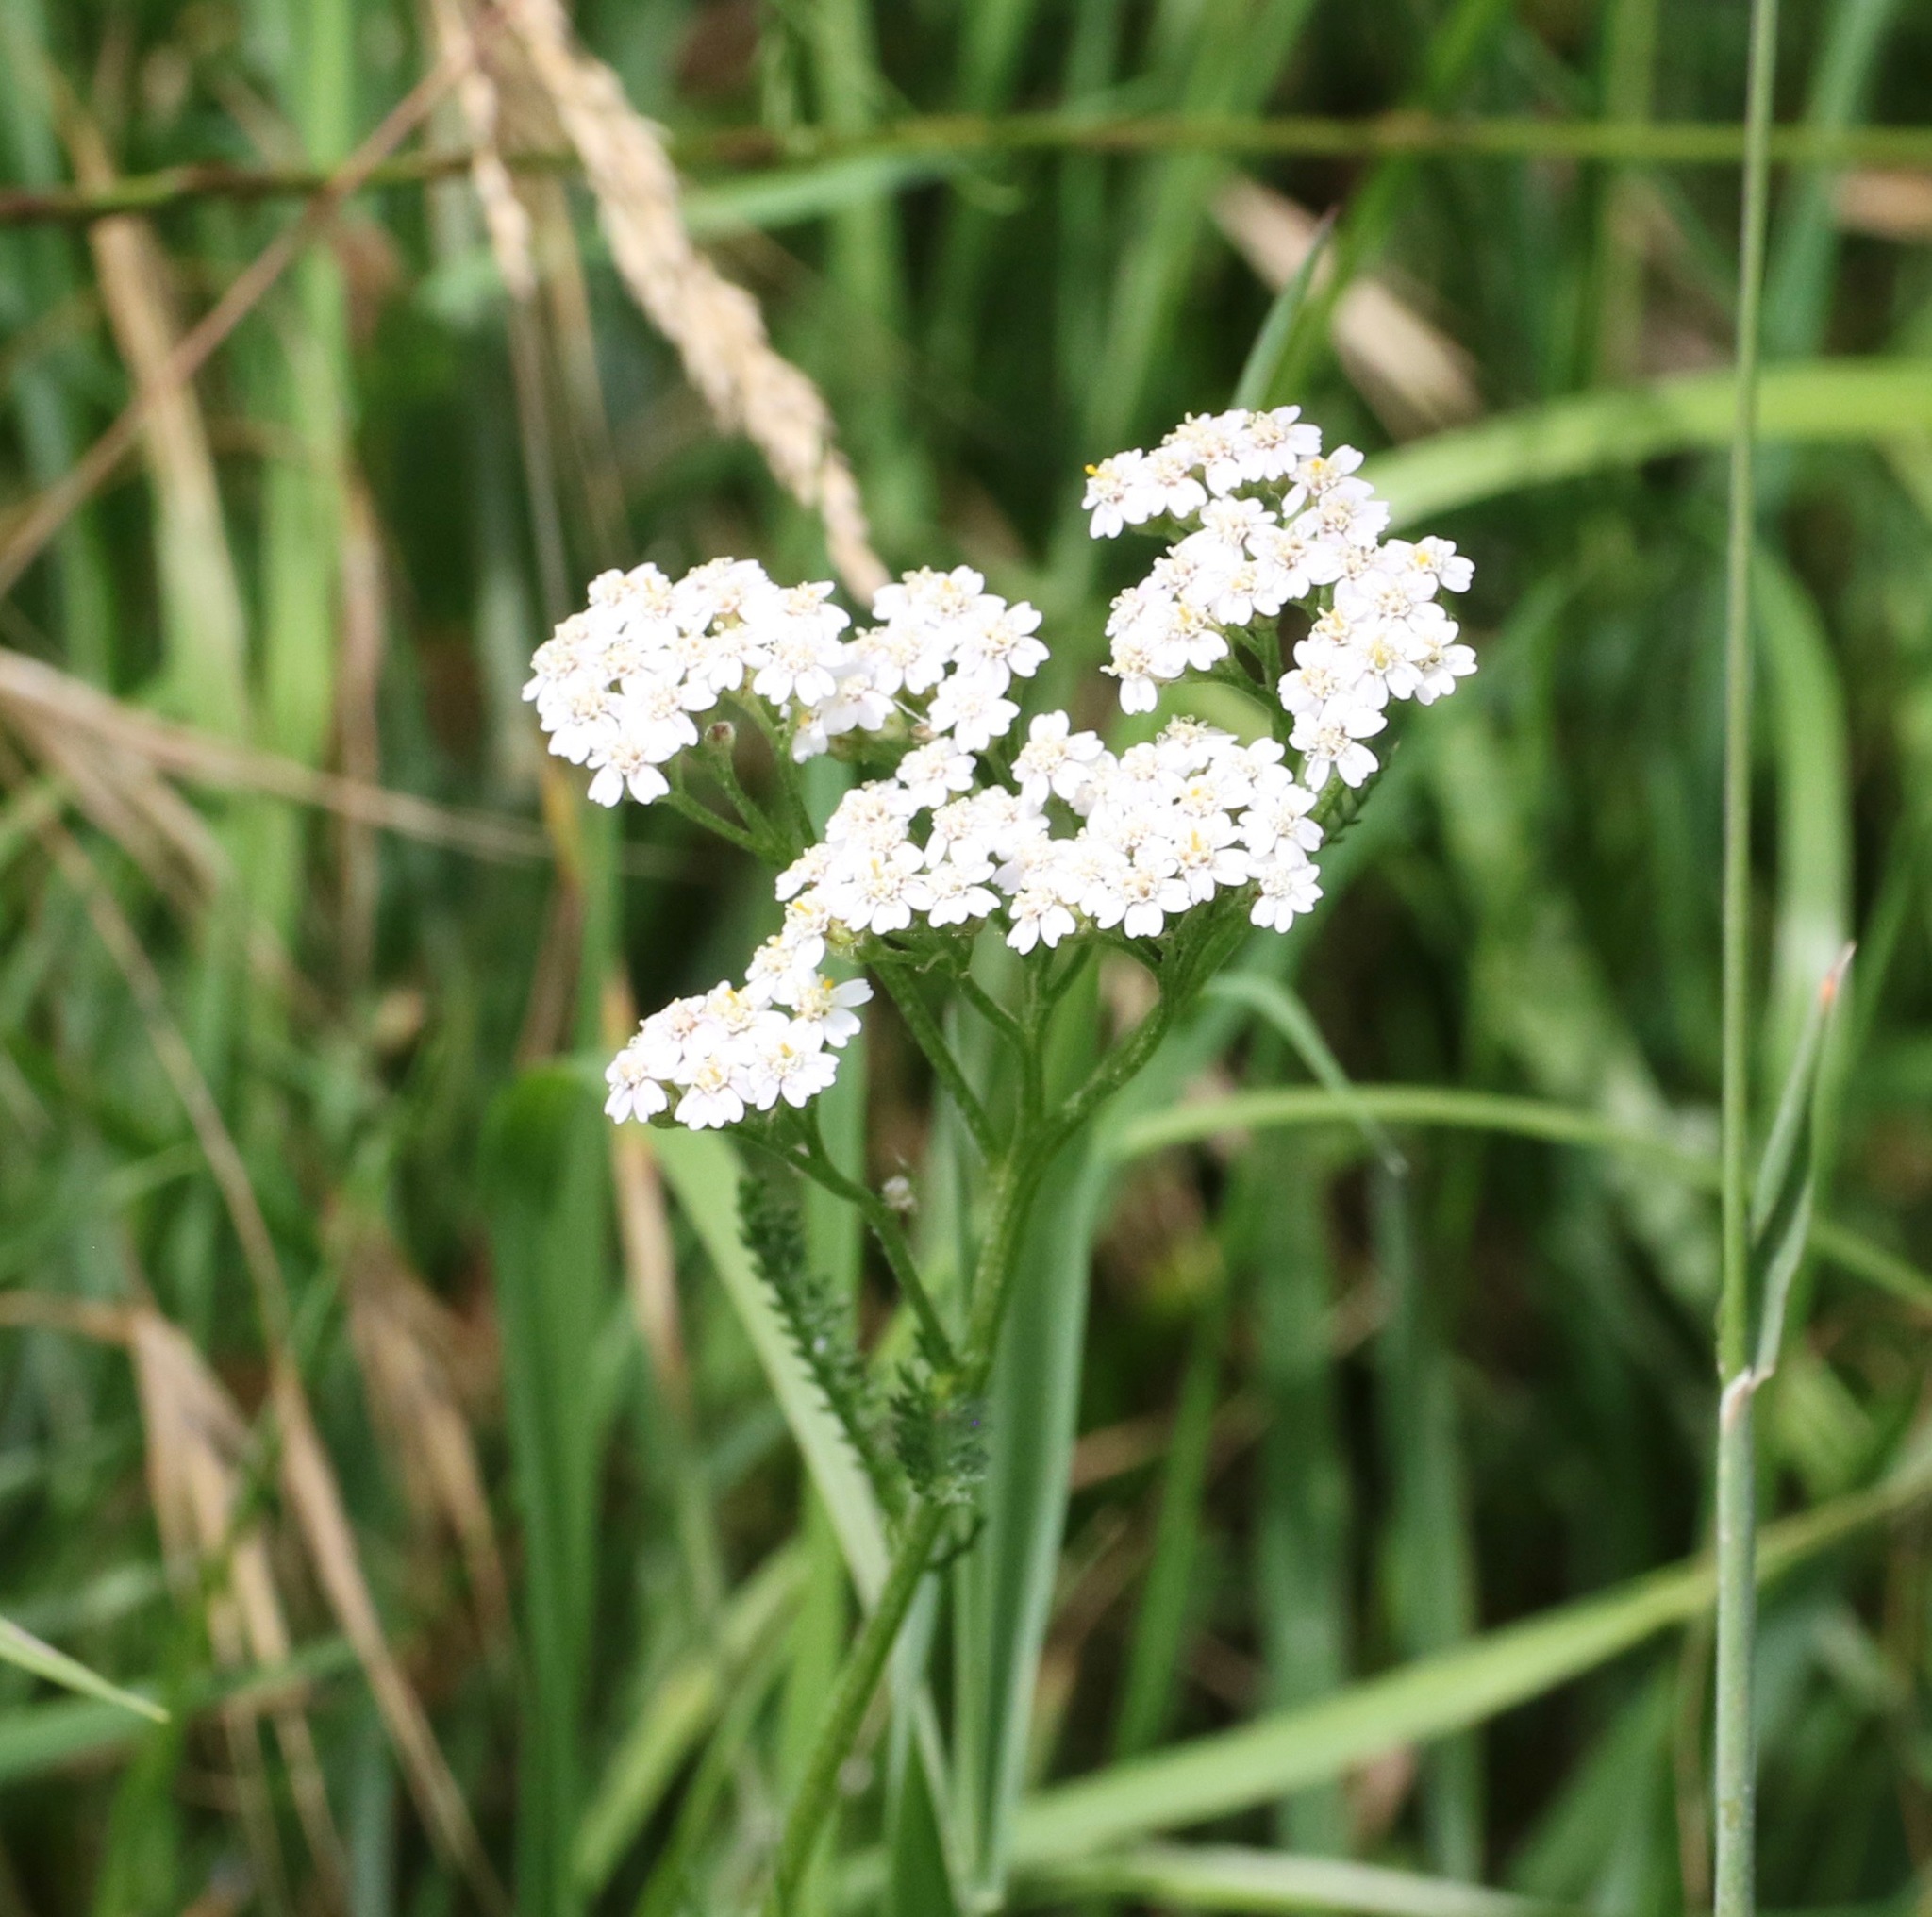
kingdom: Plantae
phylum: Tracheophyta
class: Magnoliopsida
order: Asterales
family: Asteraceae
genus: Achillea
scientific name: Achillea millefolium
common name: Yarrow
